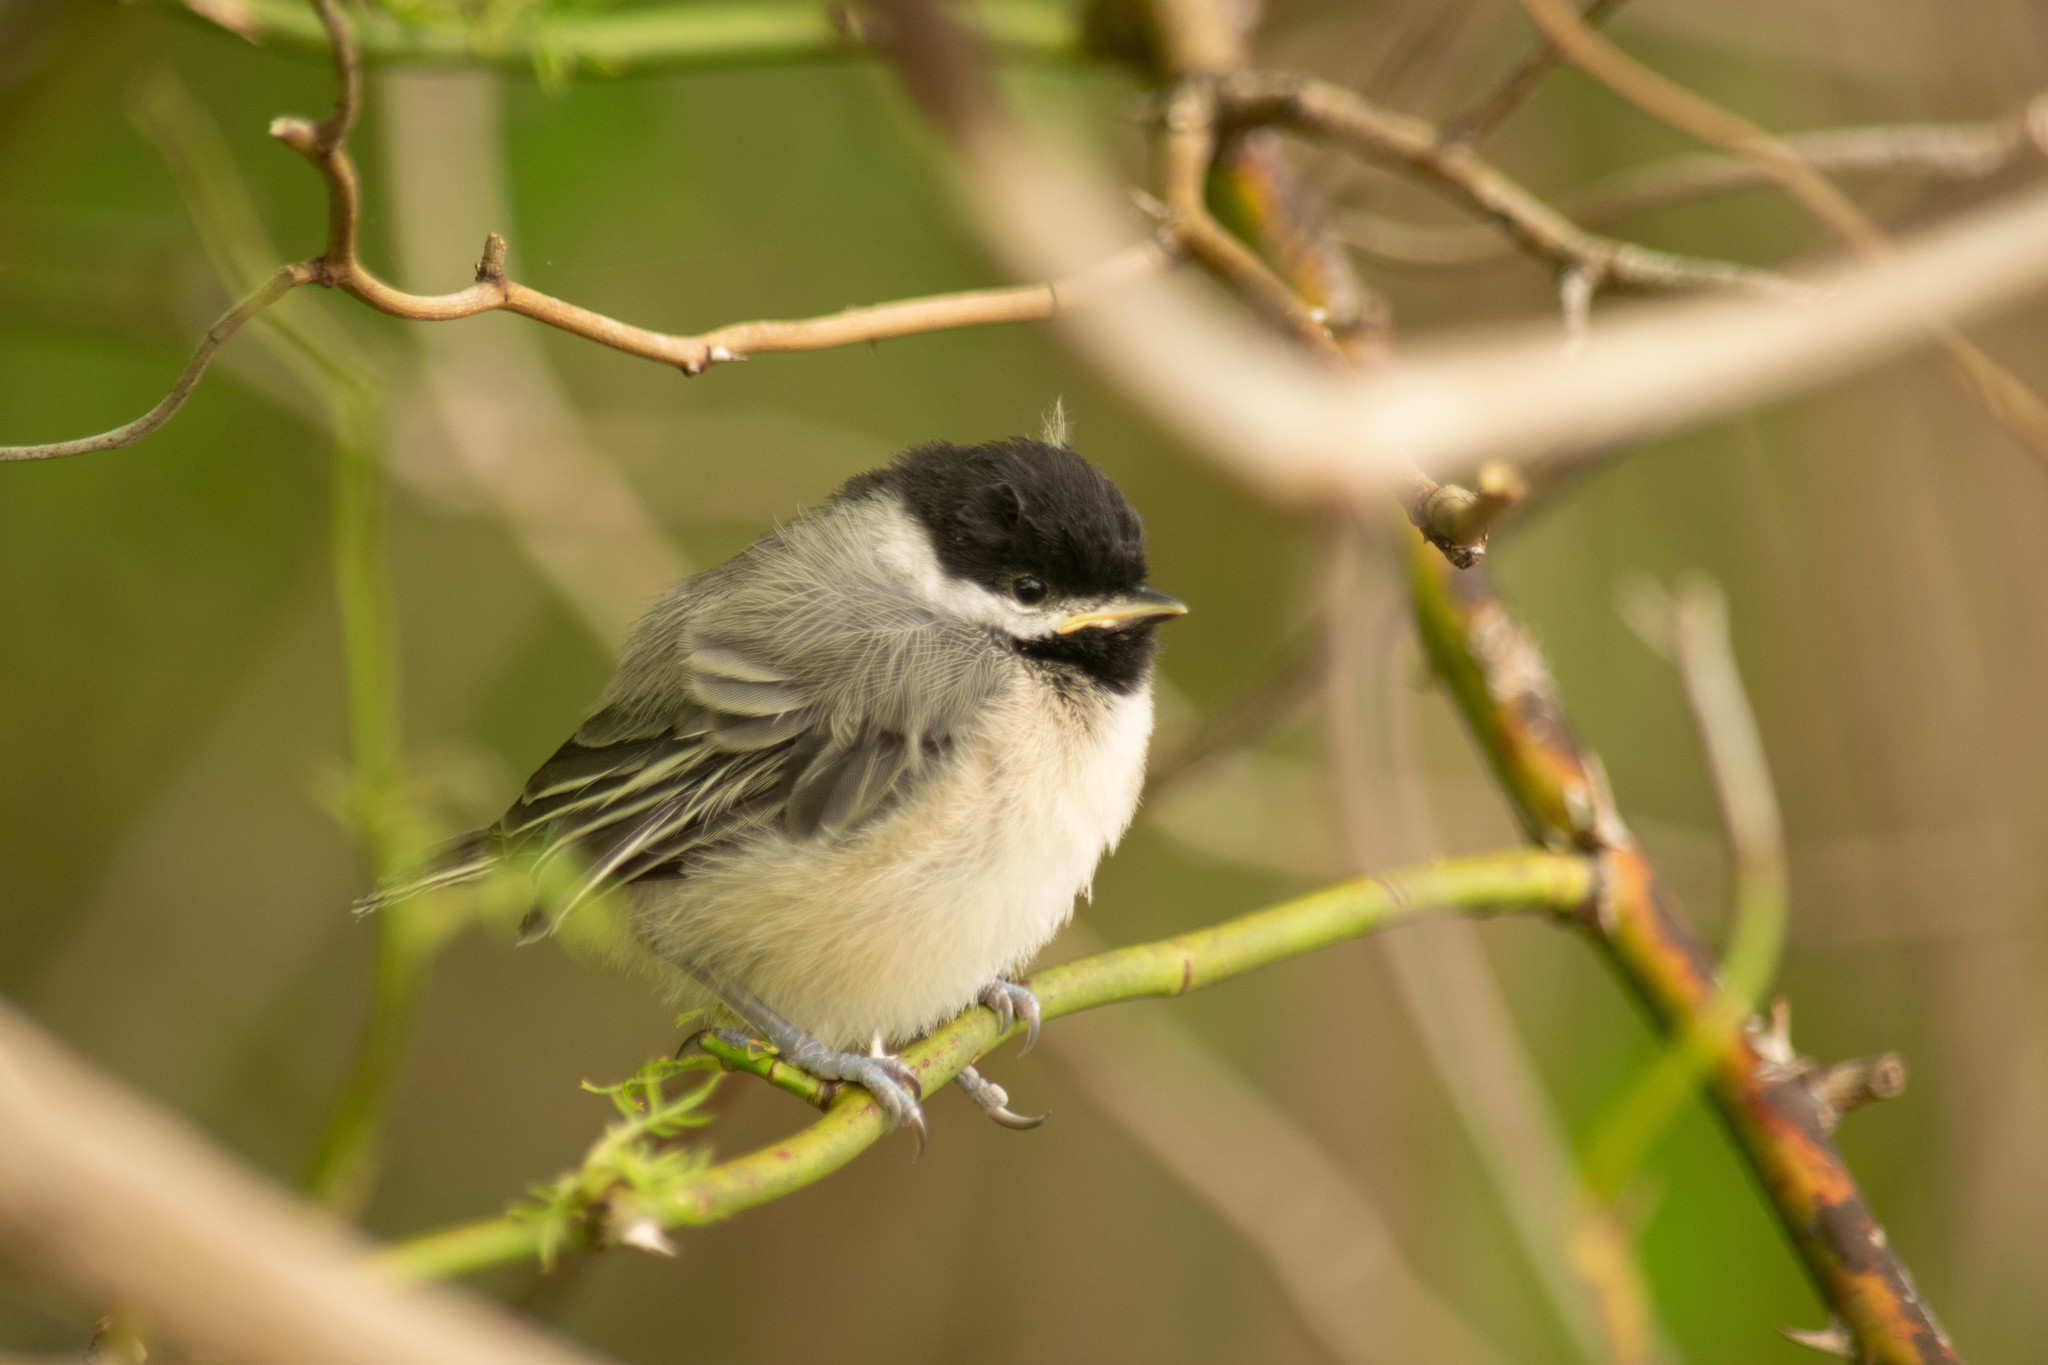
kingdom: Animalia
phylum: Chordata
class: Aves
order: Passeriformes
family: Paridae
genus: Poecile
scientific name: Poecile carolinensis
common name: Carolina chickadee
